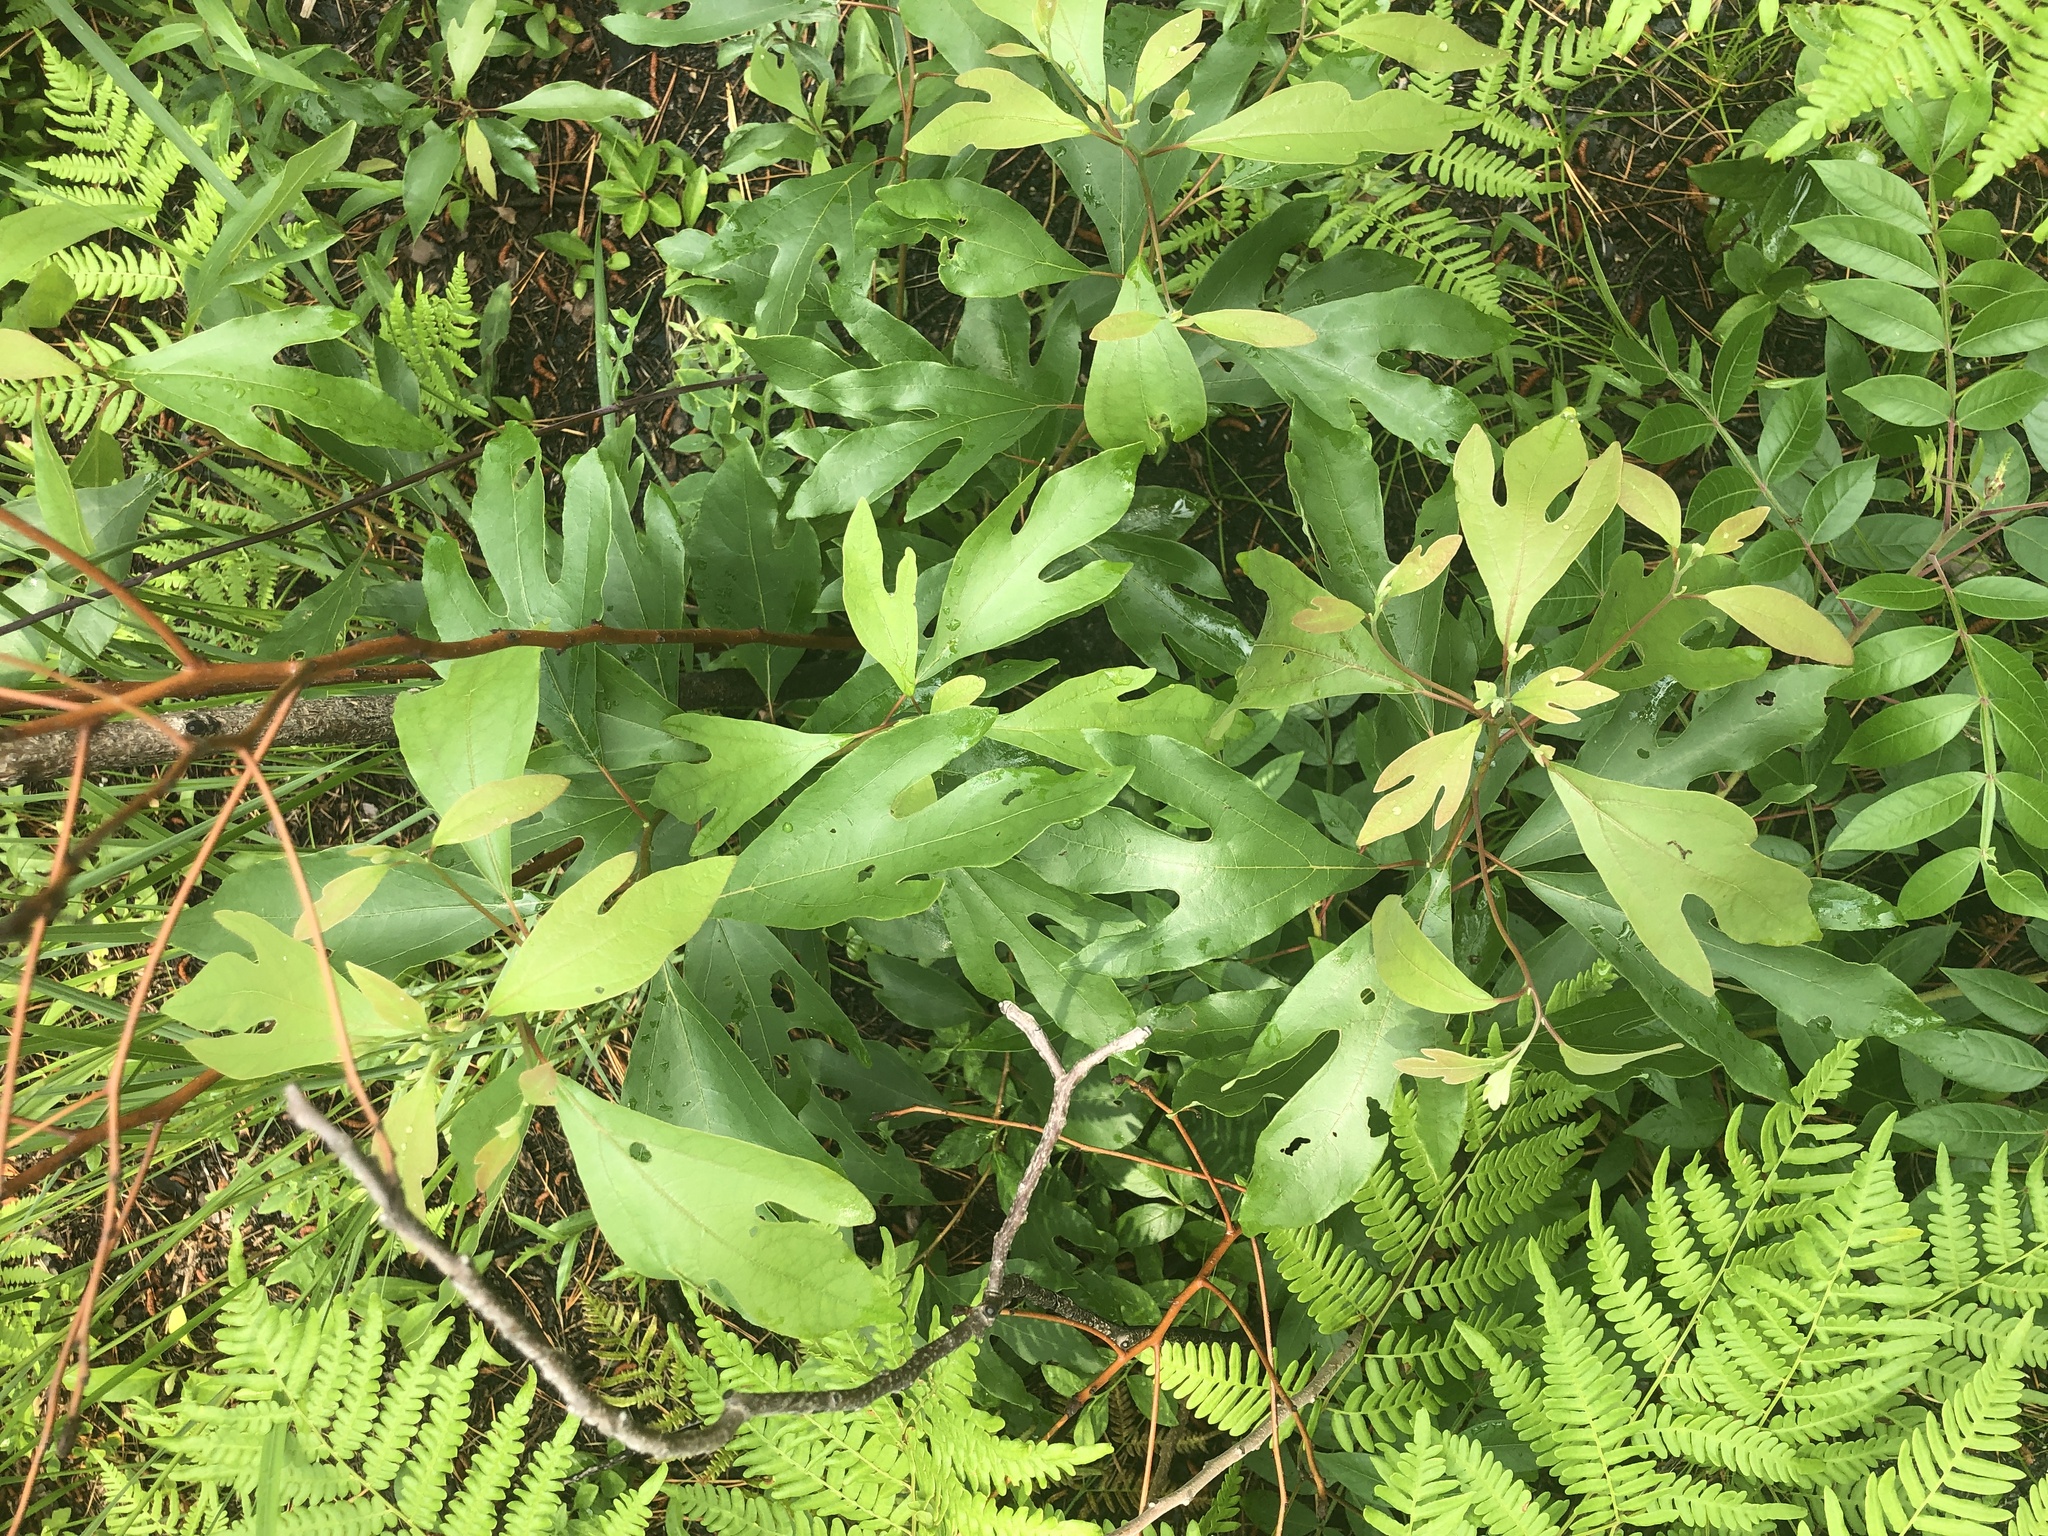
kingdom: Plantae
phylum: Tracheophyta
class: Magnoliopsida
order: Laurales
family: Lauraceae
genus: Sassafras
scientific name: Sassafras albidum
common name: Sassafras
